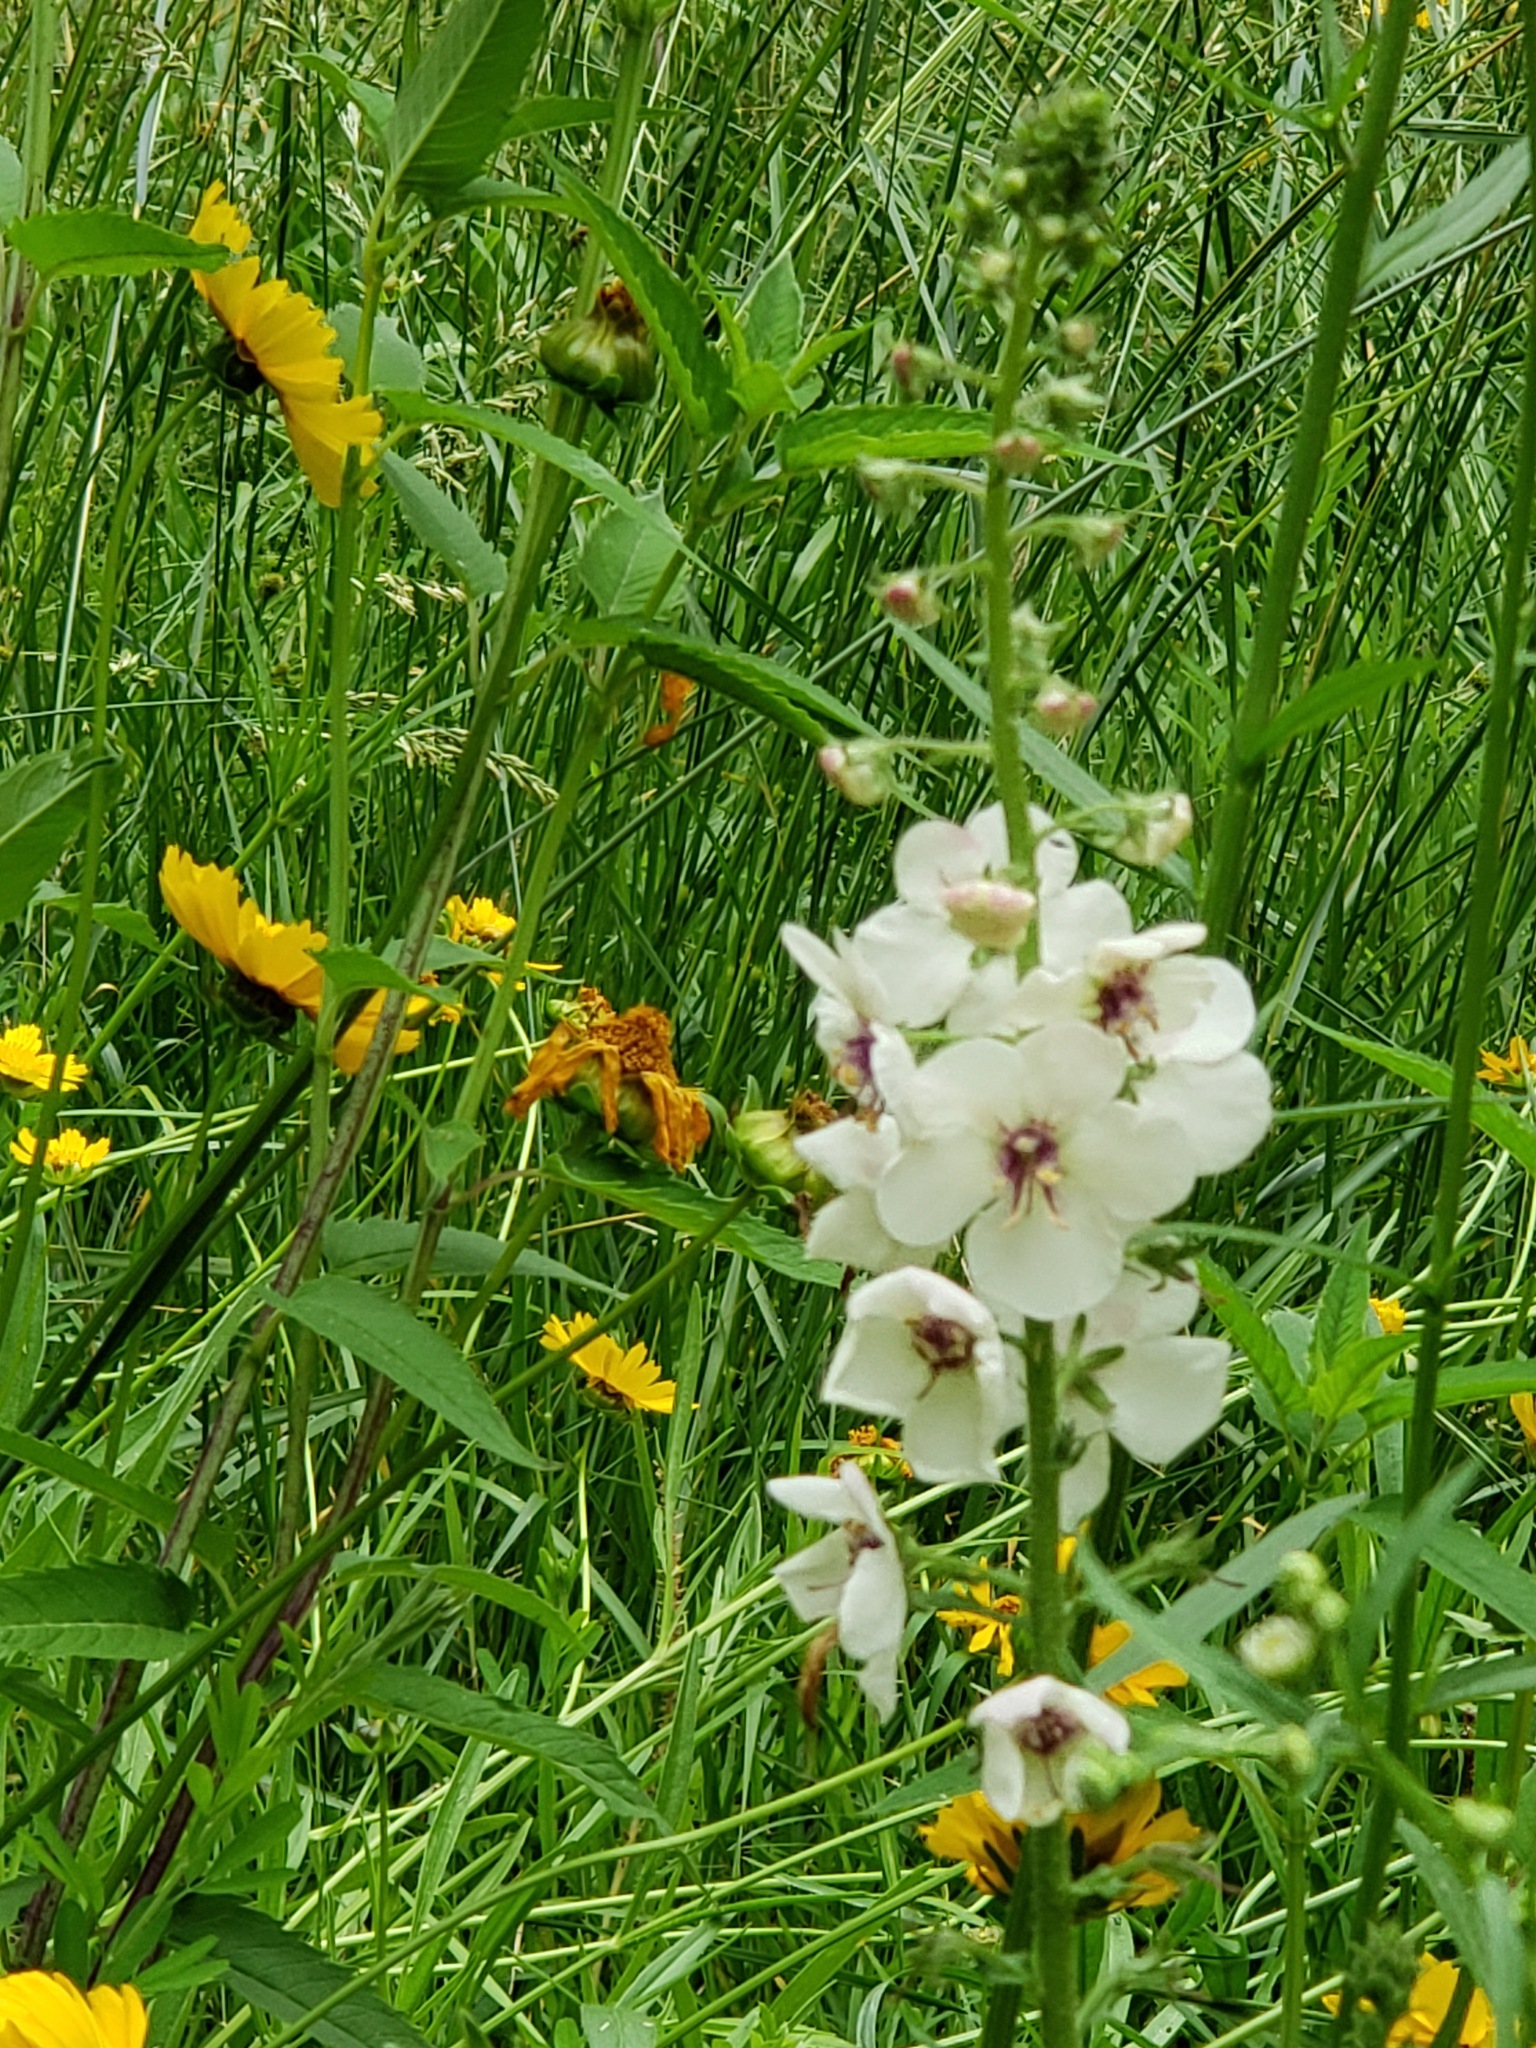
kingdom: Plantae
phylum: Tracheophyta
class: Magnoliopsida
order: Lamiales
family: Scrophulariaceae
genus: Verbascum
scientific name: Verbascum blattaria
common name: Moth mullein
